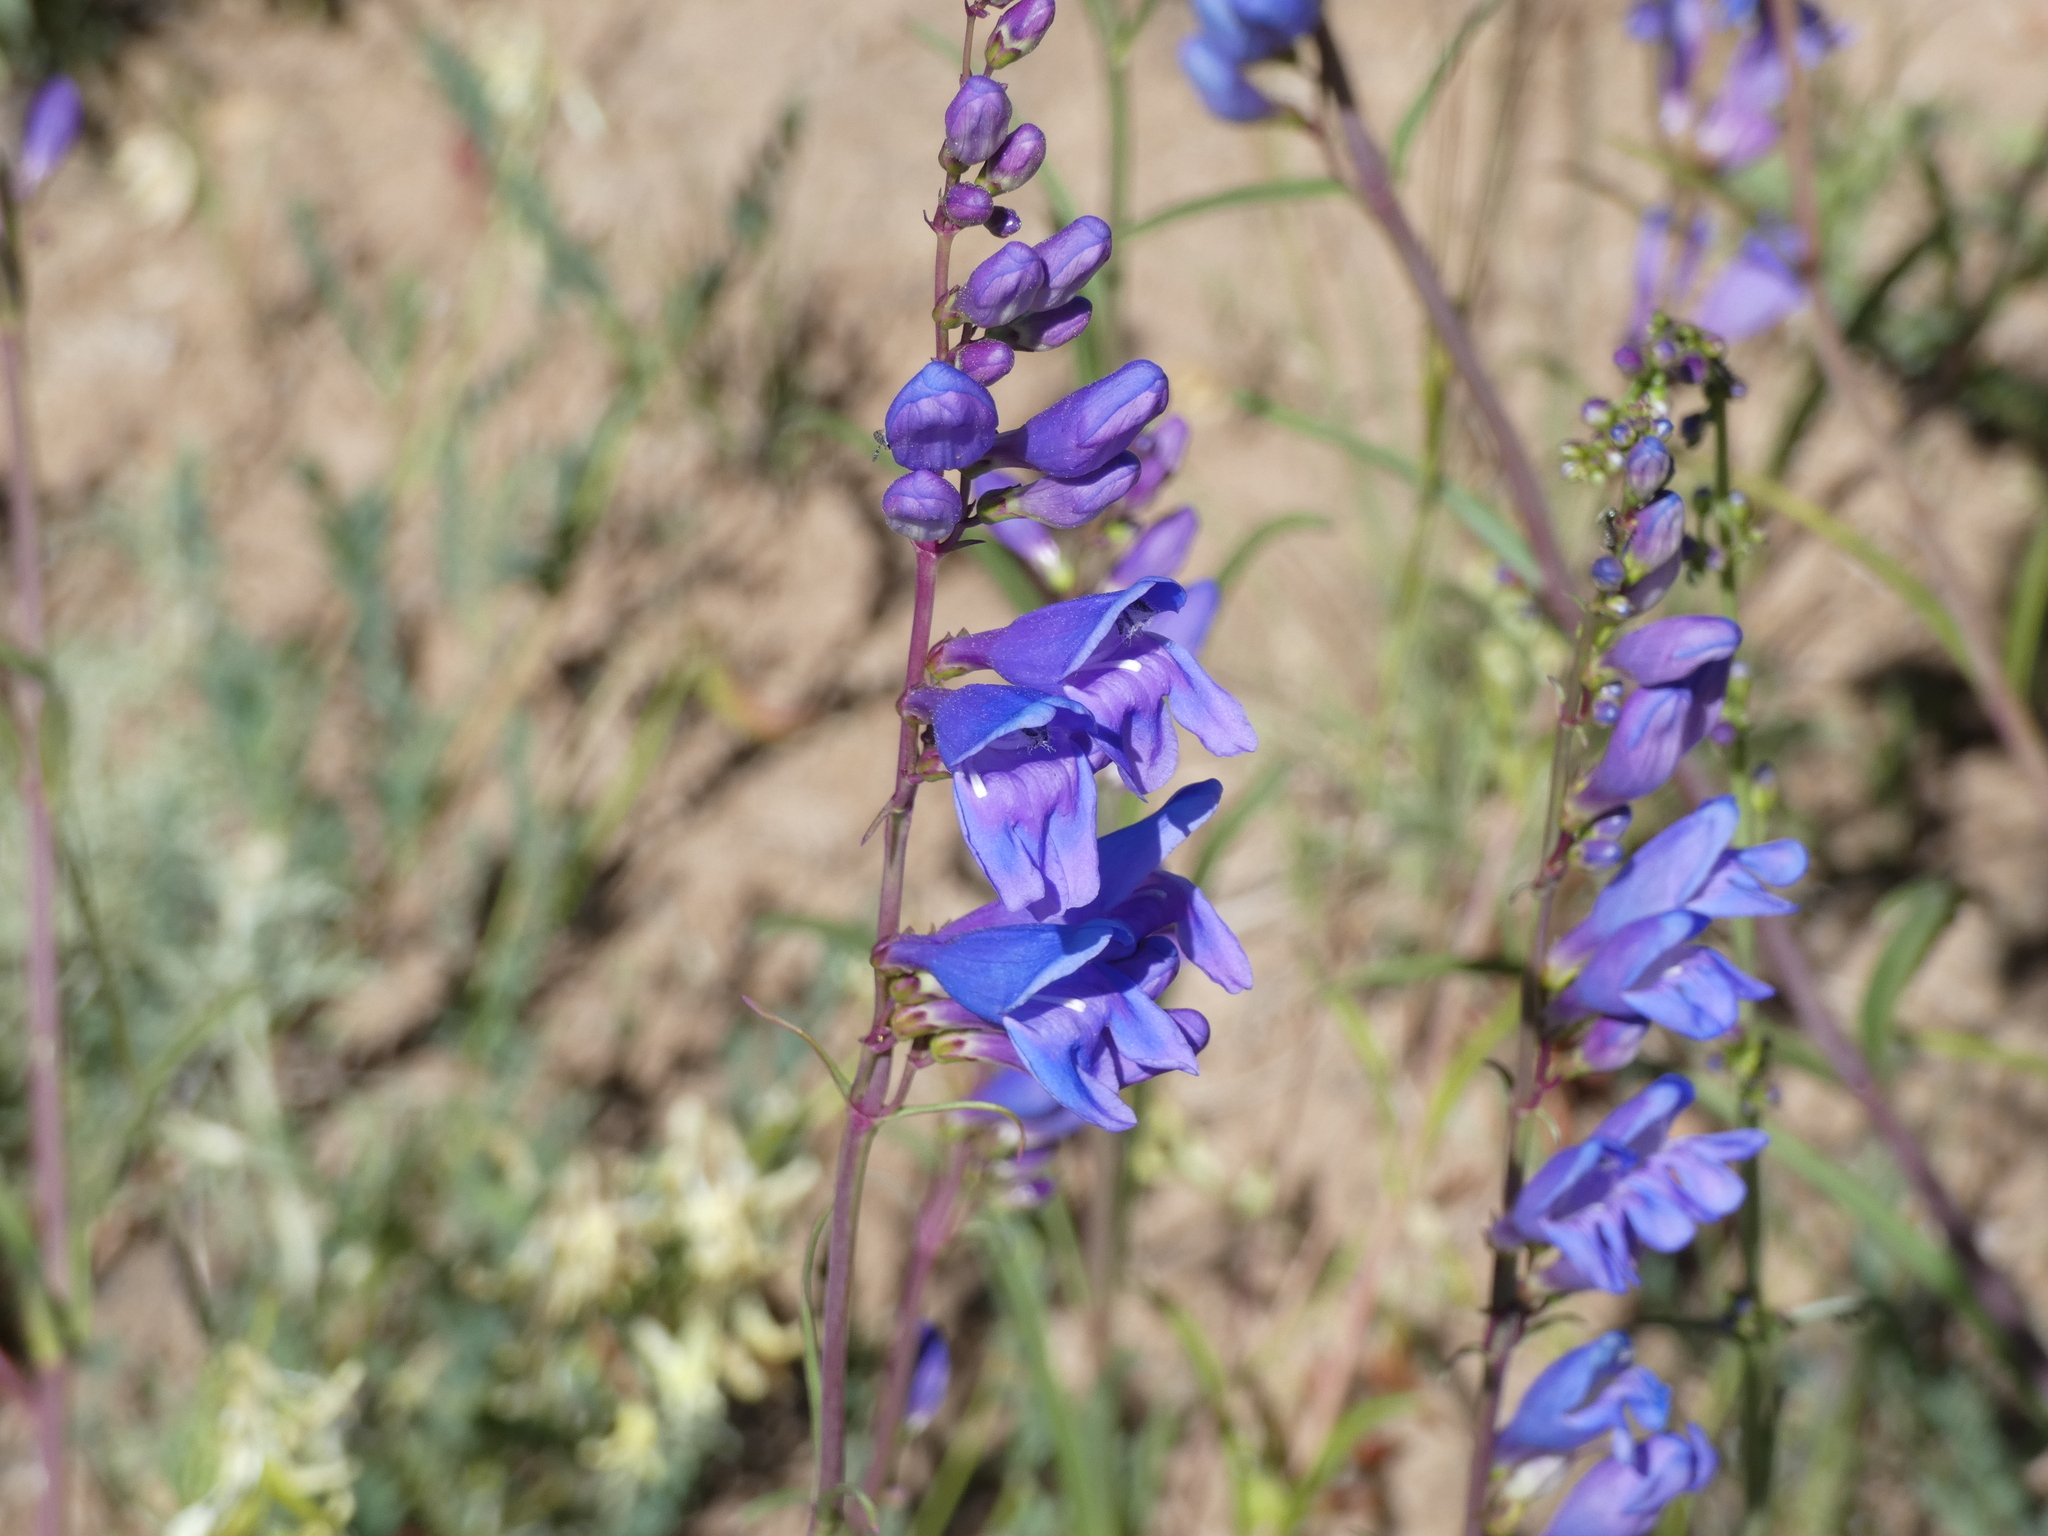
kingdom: Plantae
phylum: Tracheophyta
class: Magnoliopsida
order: Lamiales
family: Plantaginaceae
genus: Penstemon
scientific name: Penstemon strictus
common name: Rocky mountain penstemon
